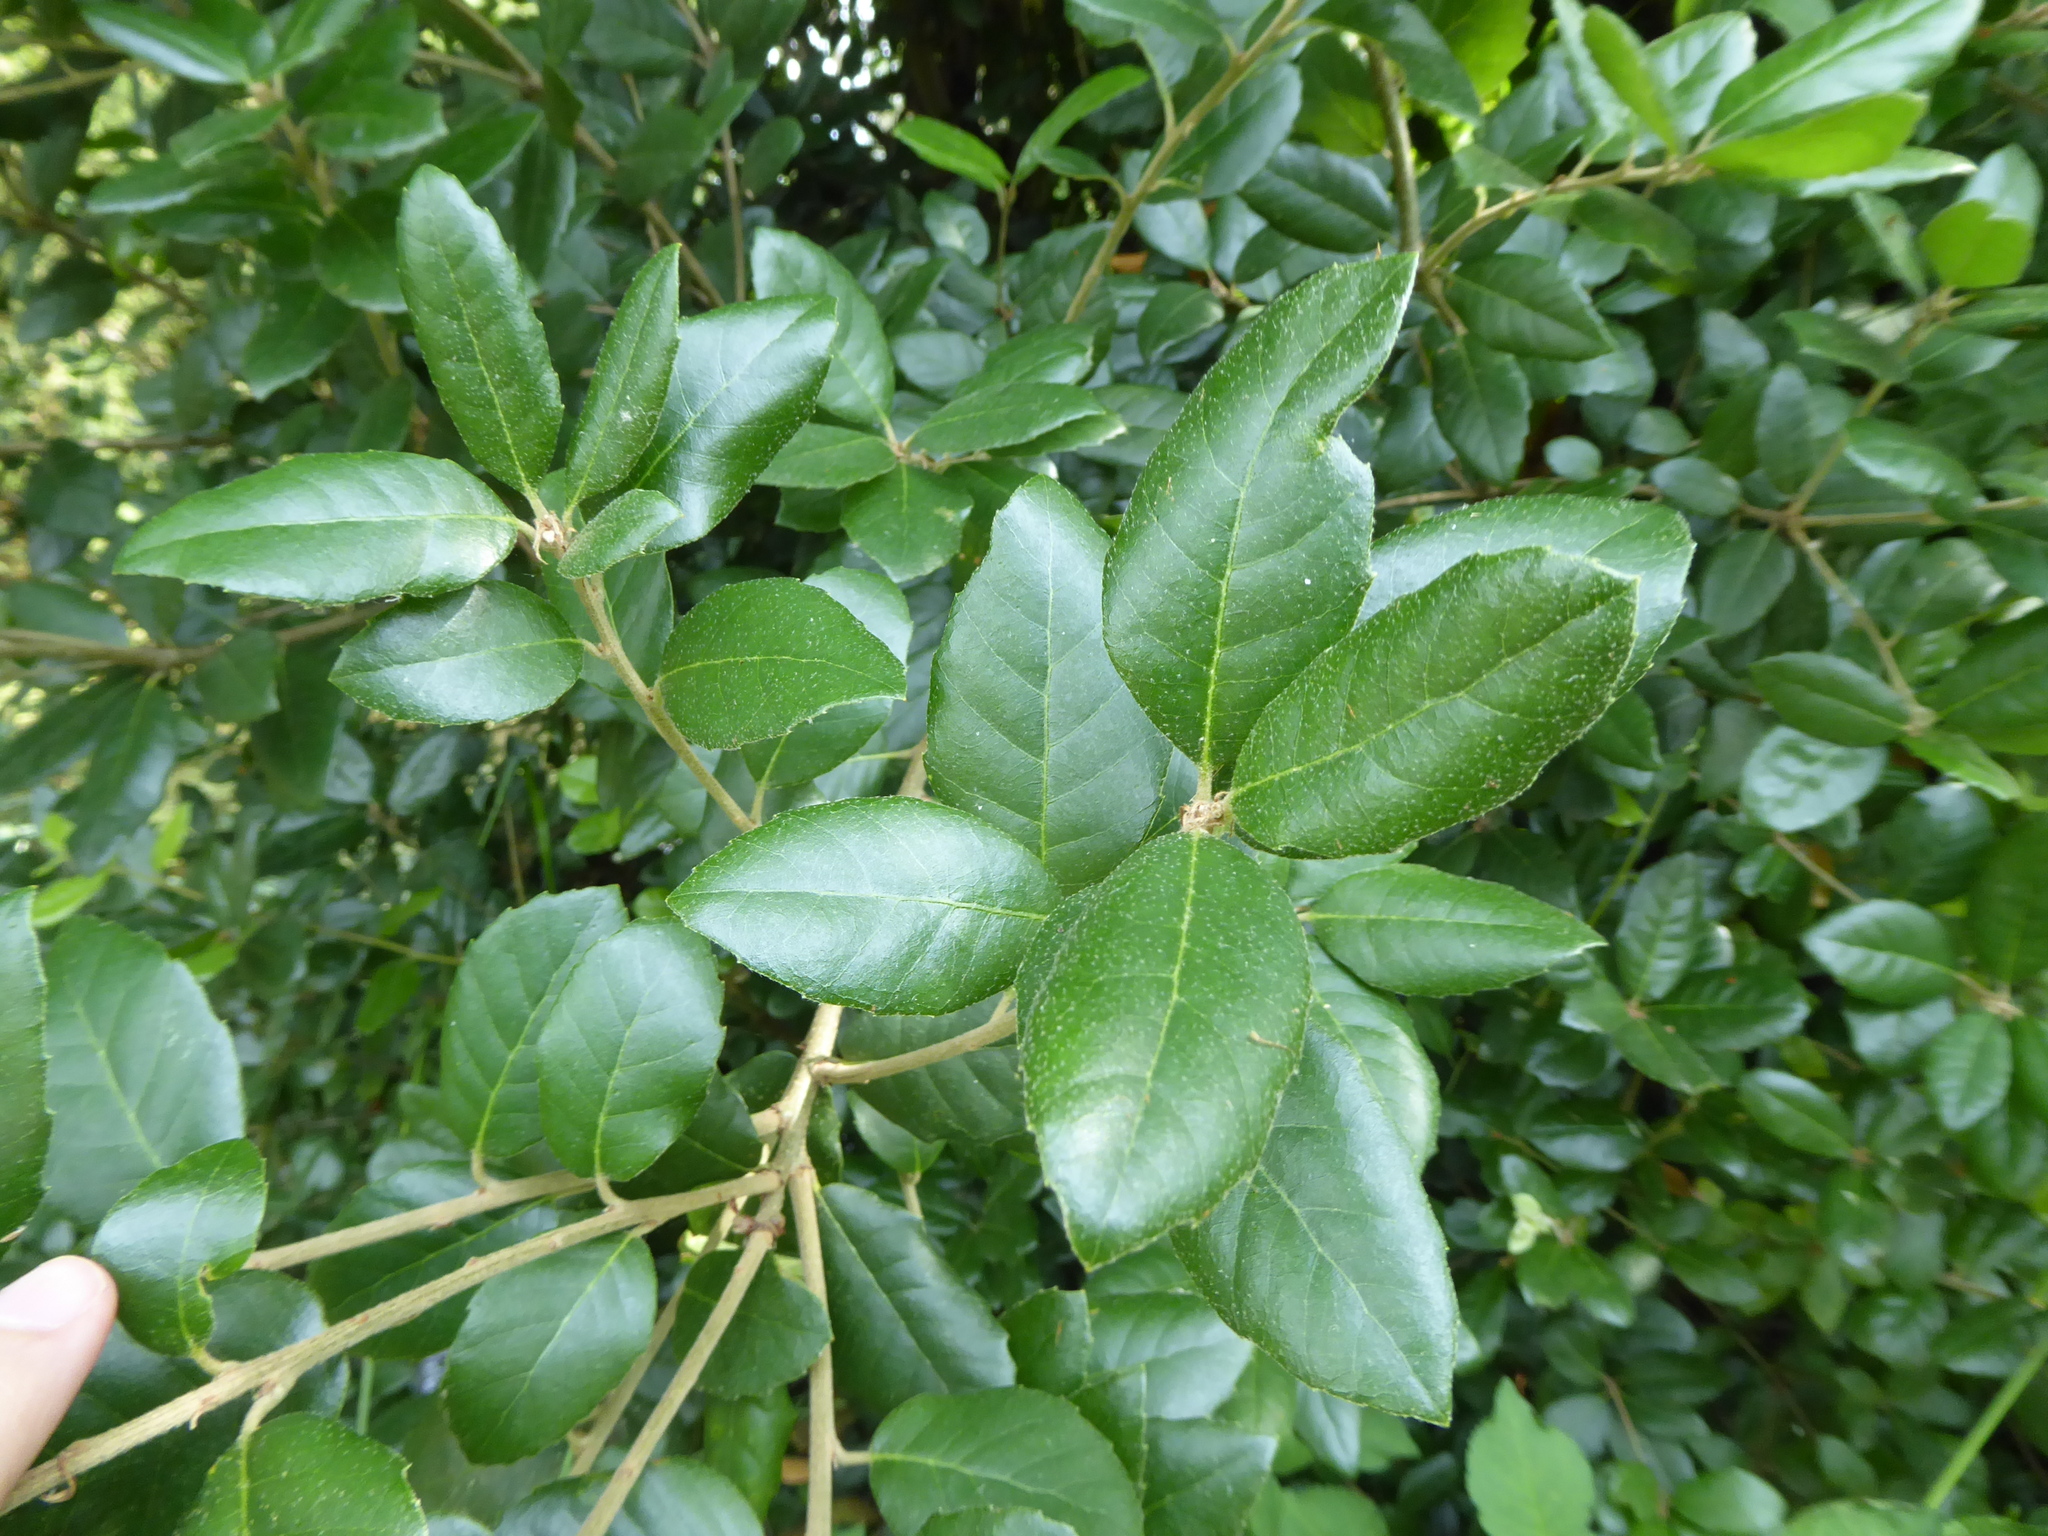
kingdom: Plantae
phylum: Tracheophyta
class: Magnoliopsida
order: Fagales
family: Fagaceae
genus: Quercus
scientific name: Quercus ilex
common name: Evergreen oak
